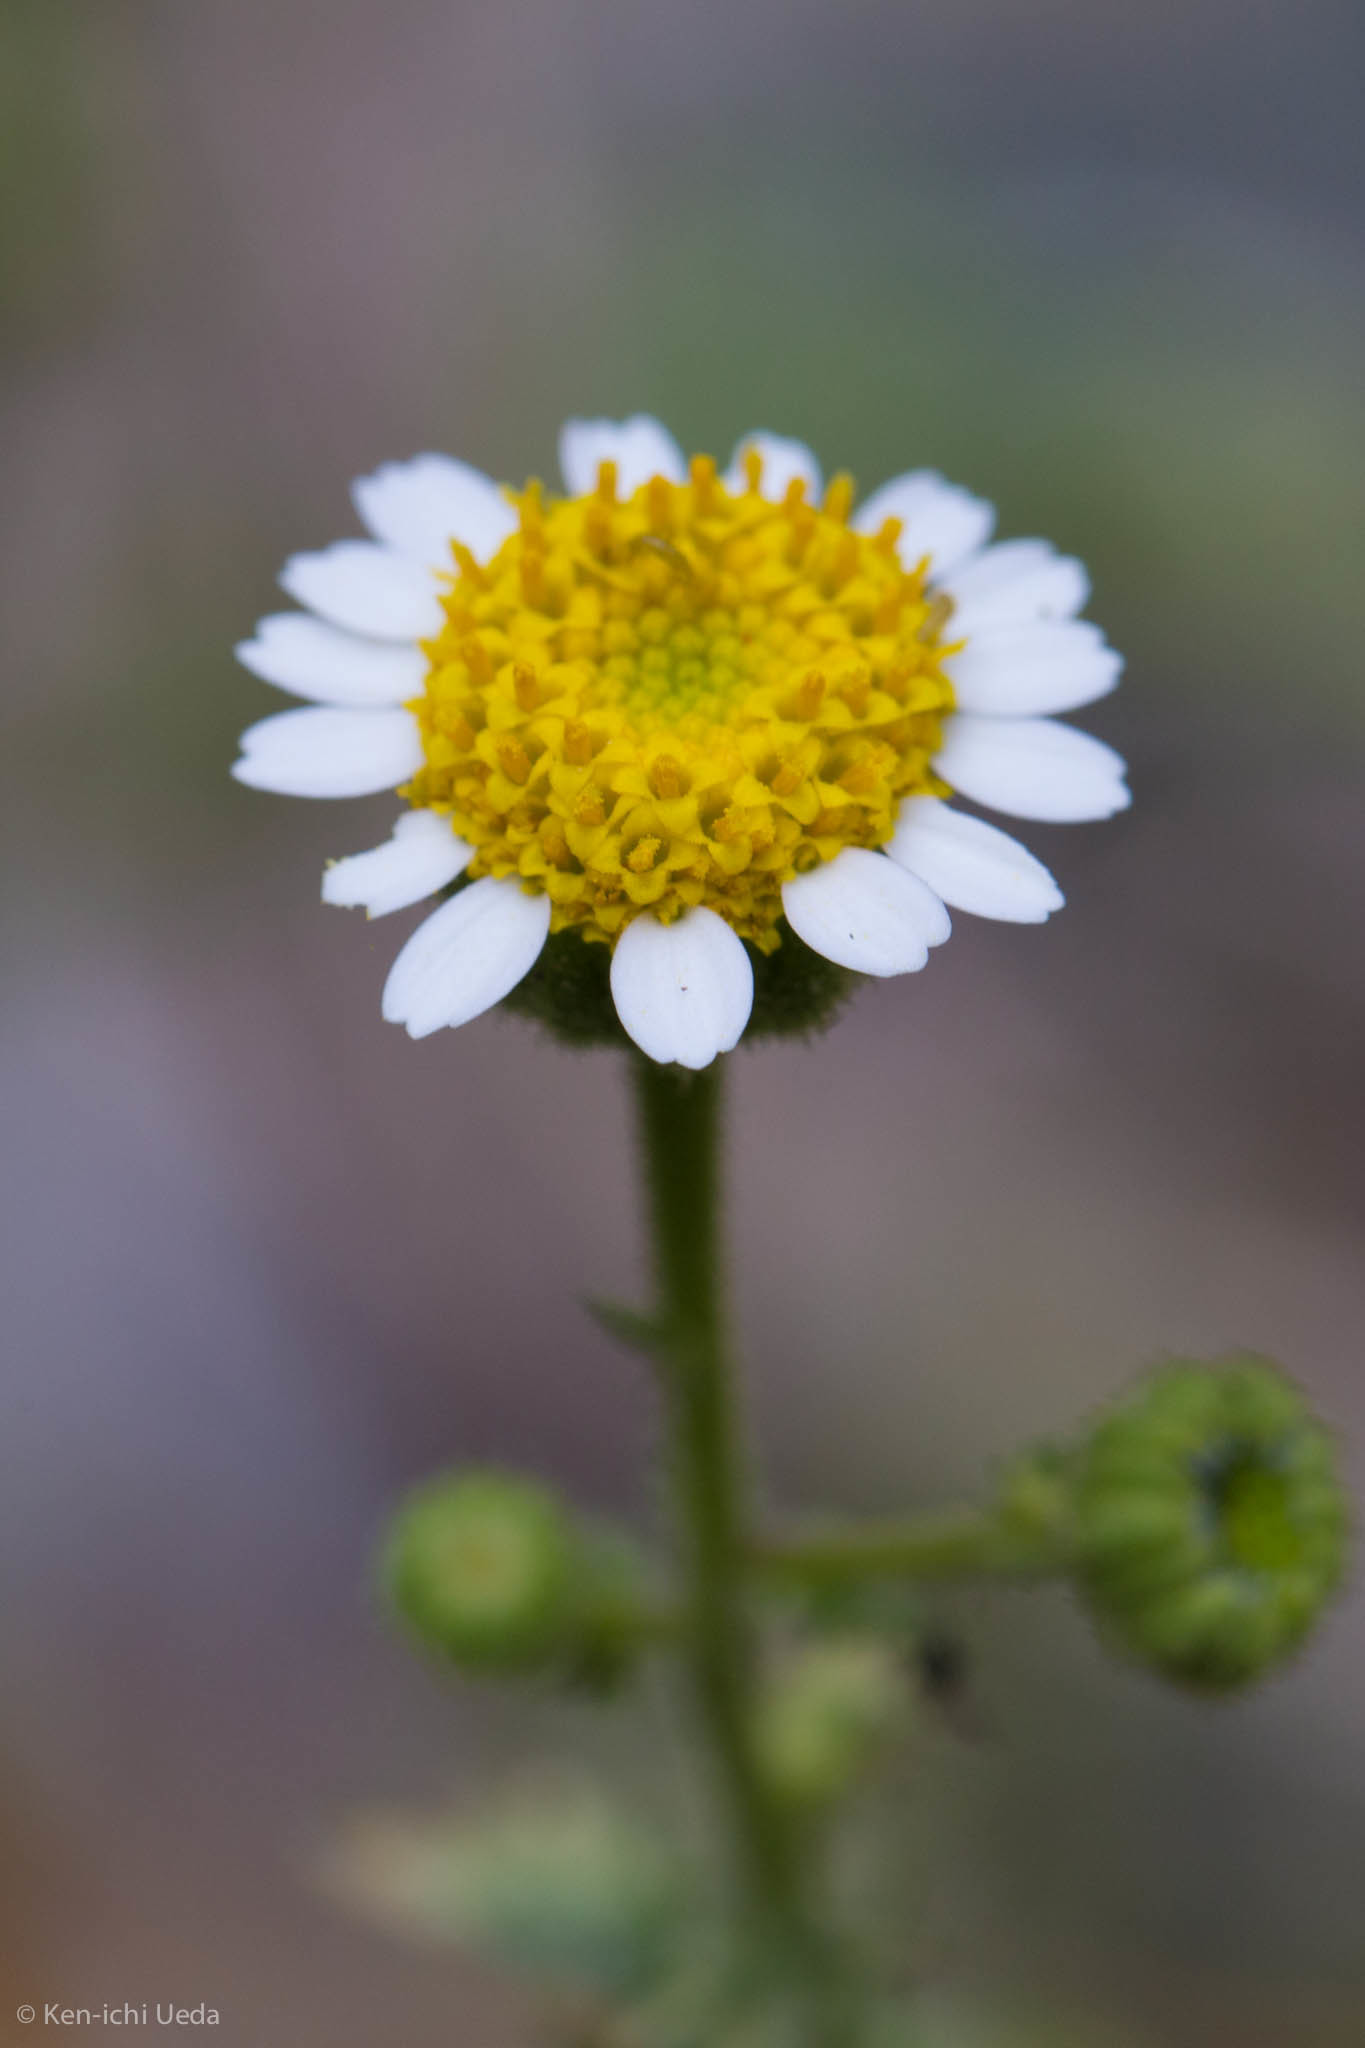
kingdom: Plantae
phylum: Tracheophyta
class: Magnoliopsida
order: Asterales
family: Asteraceae
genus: Laphamia
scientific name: Laphamia emoryi
